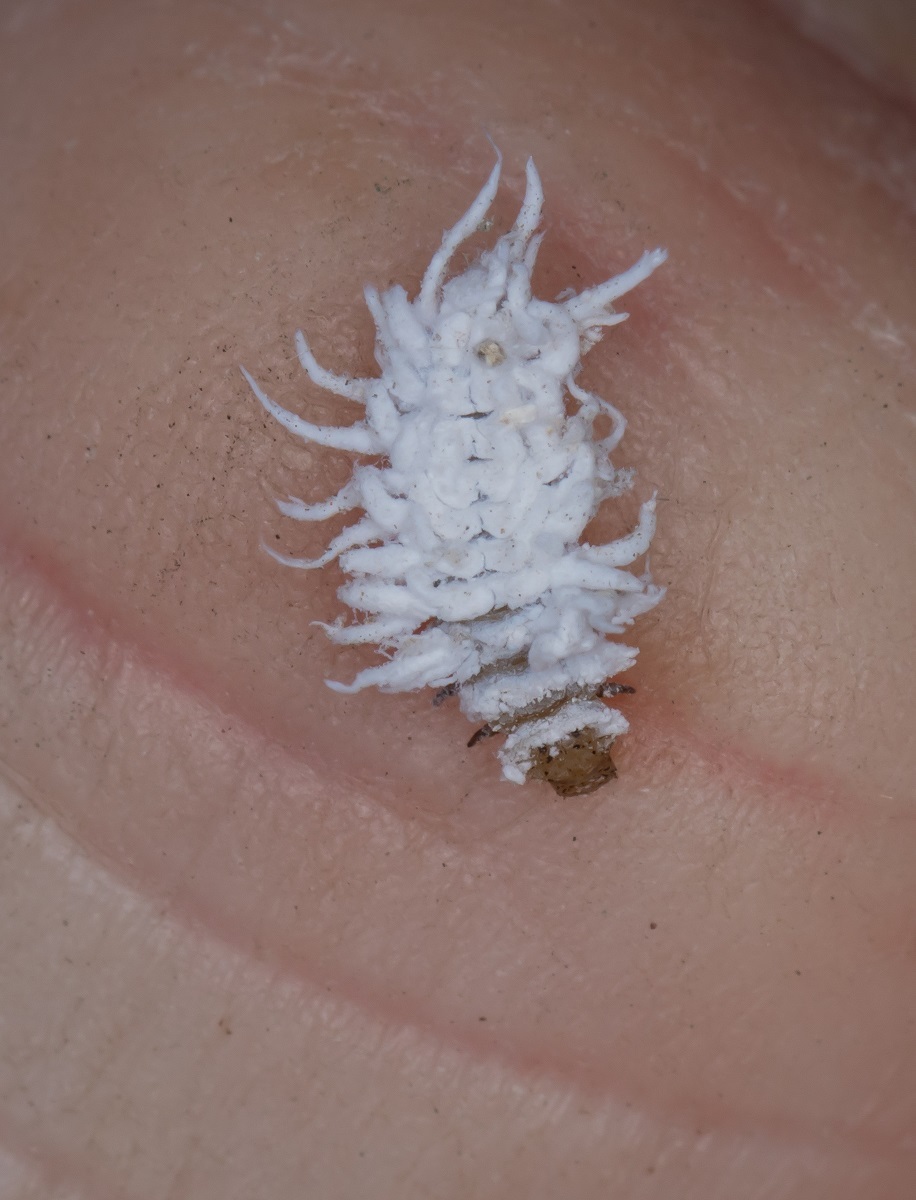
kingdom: Animalia
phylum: Arthropoda
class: Insecta
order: Coleoptera
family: Coccinellidae
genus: Cryptolaemus
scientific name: Cryptolaemus montrouzieri
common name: Mealybug destroyer
